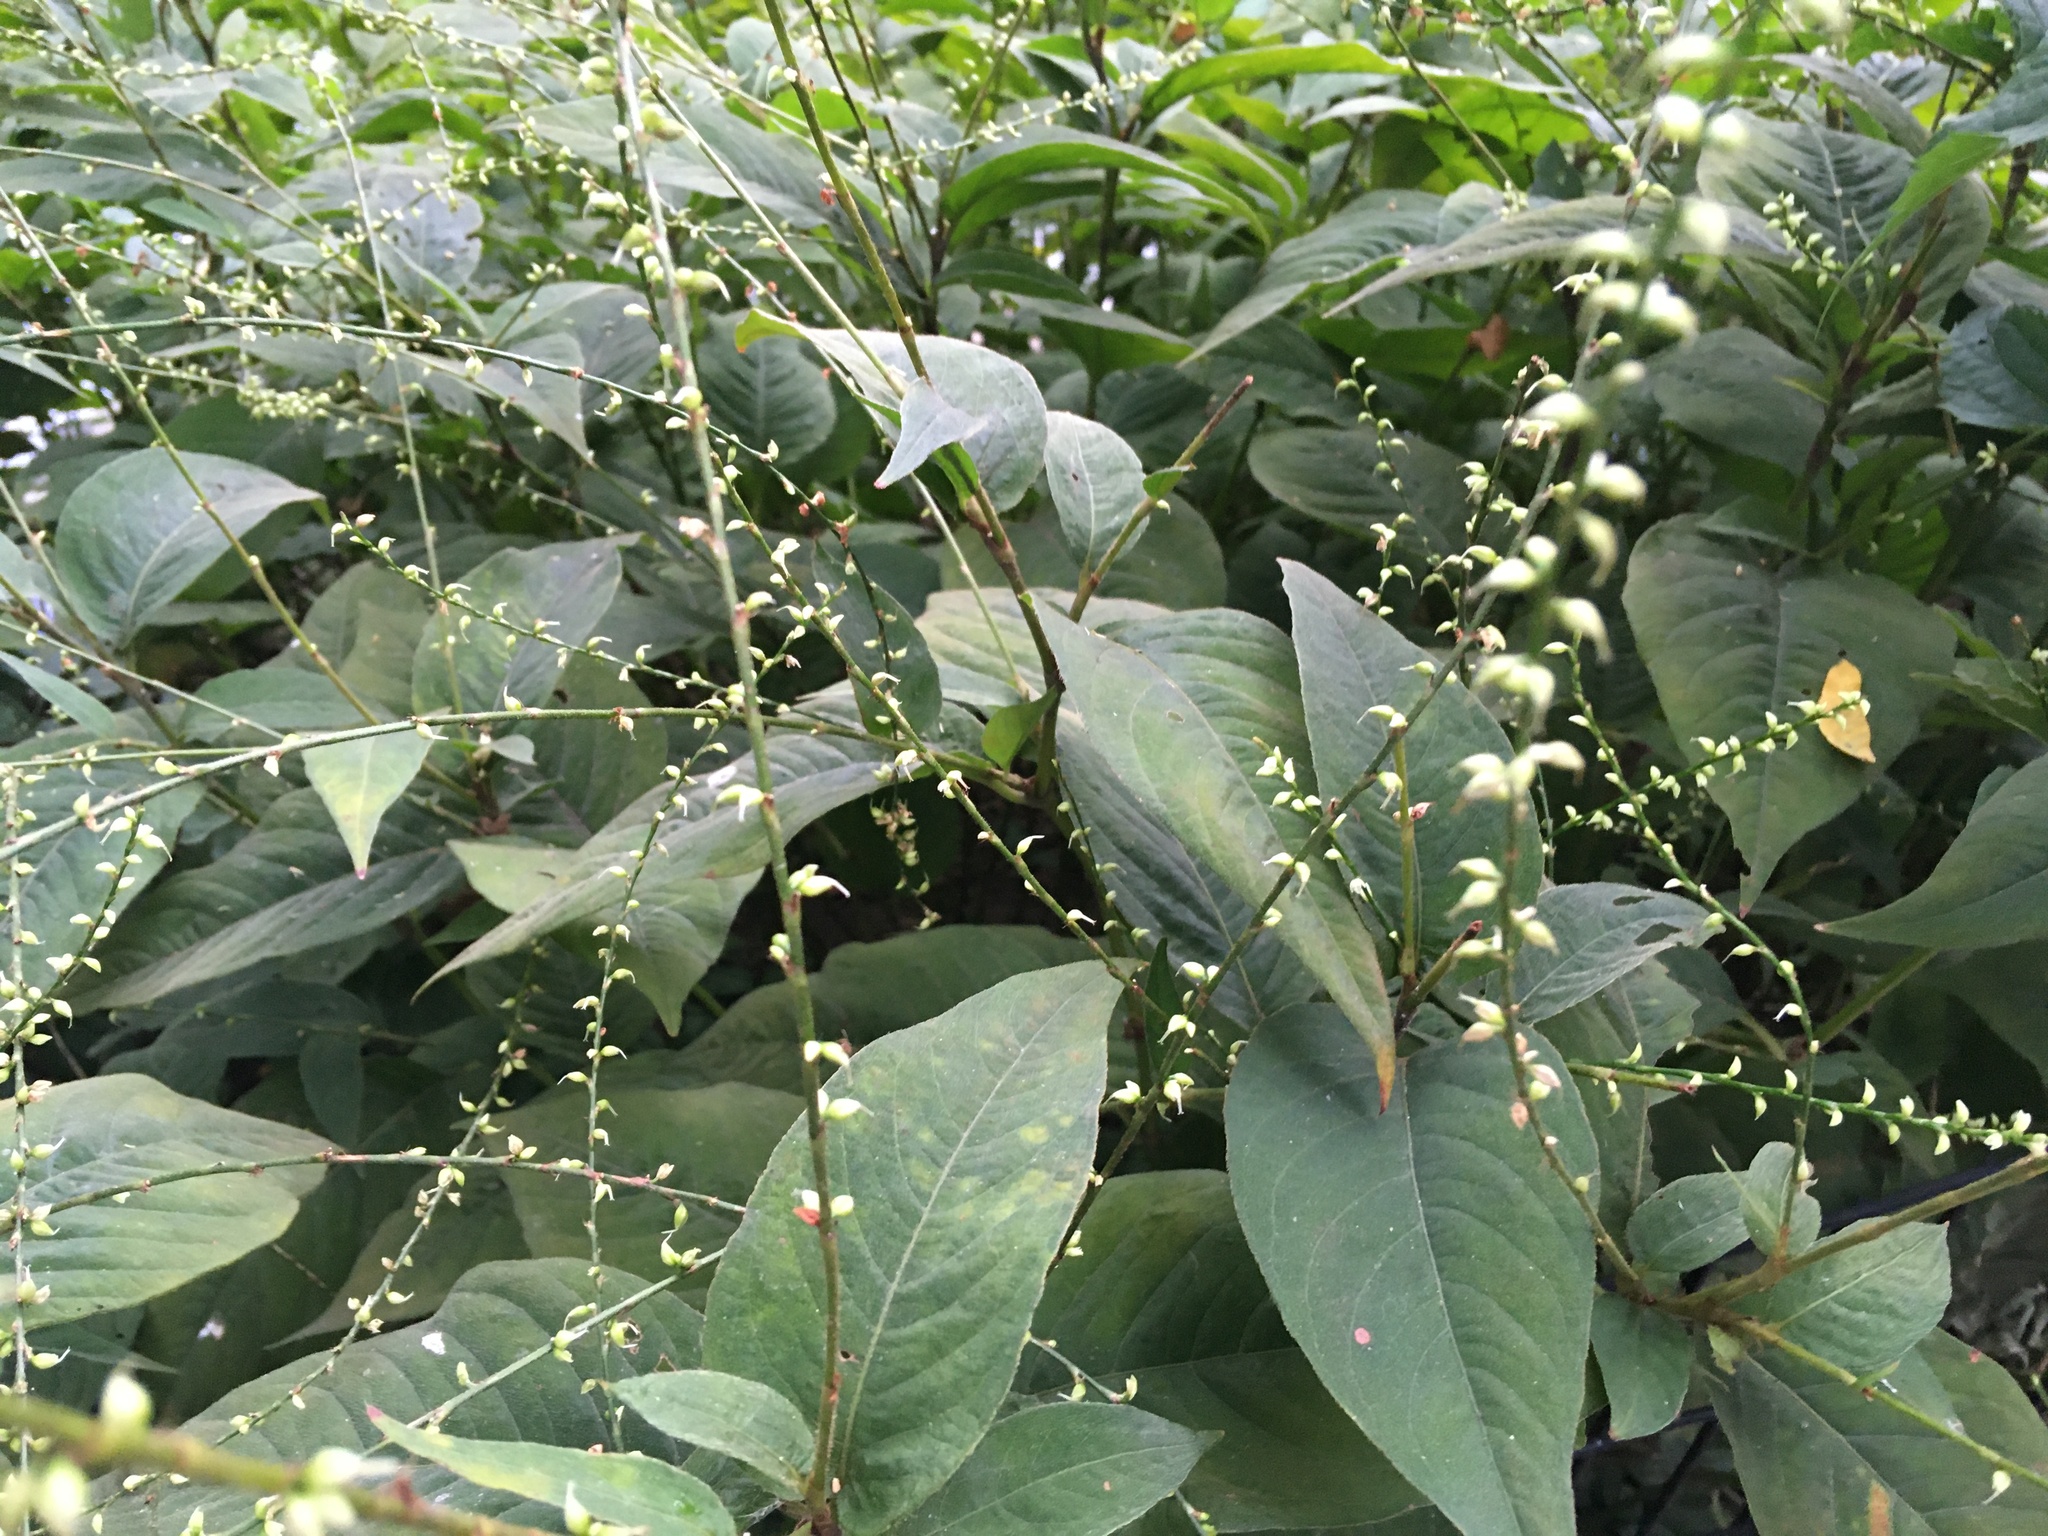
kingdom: Plantae
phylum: Tracheophyta
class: Magnoliopsida
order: Caryophyllales
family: Polygonaceae
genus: Persicaria
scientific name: Persicaria virginiana
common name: Jumpseed
